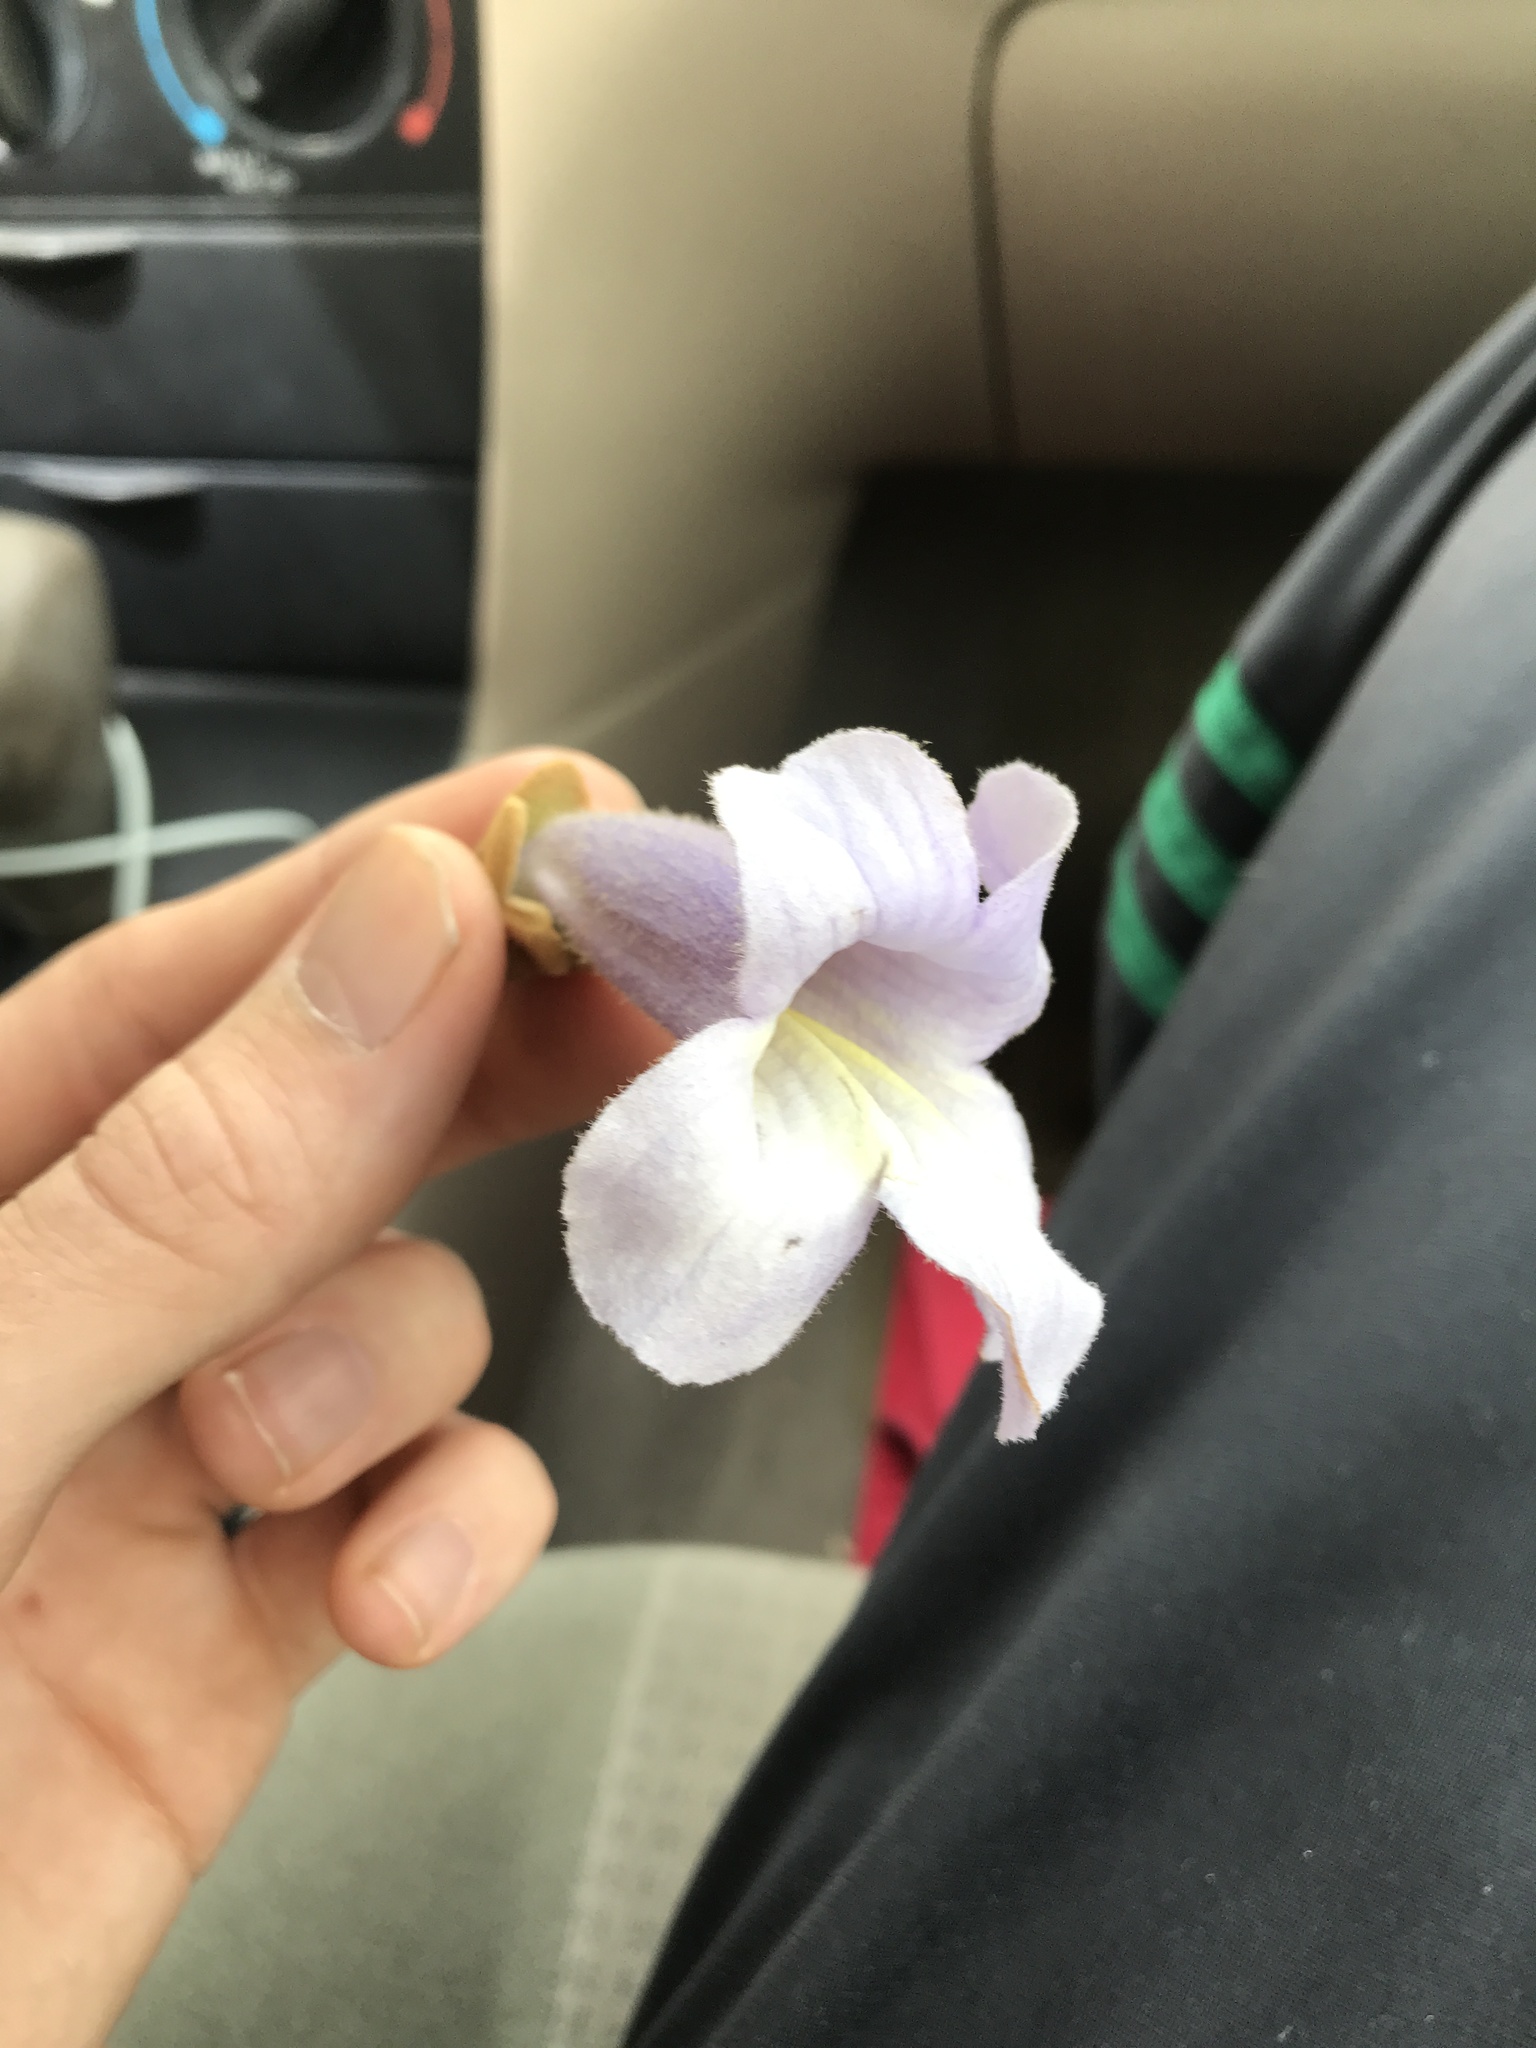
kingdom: Plantae
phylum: Tracheophyta
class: Magnoliopsida
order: Lamiales
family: Paulowniaceae
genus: Paulownia
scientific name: Paulownia tomentosa
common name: Foxglove-tree
